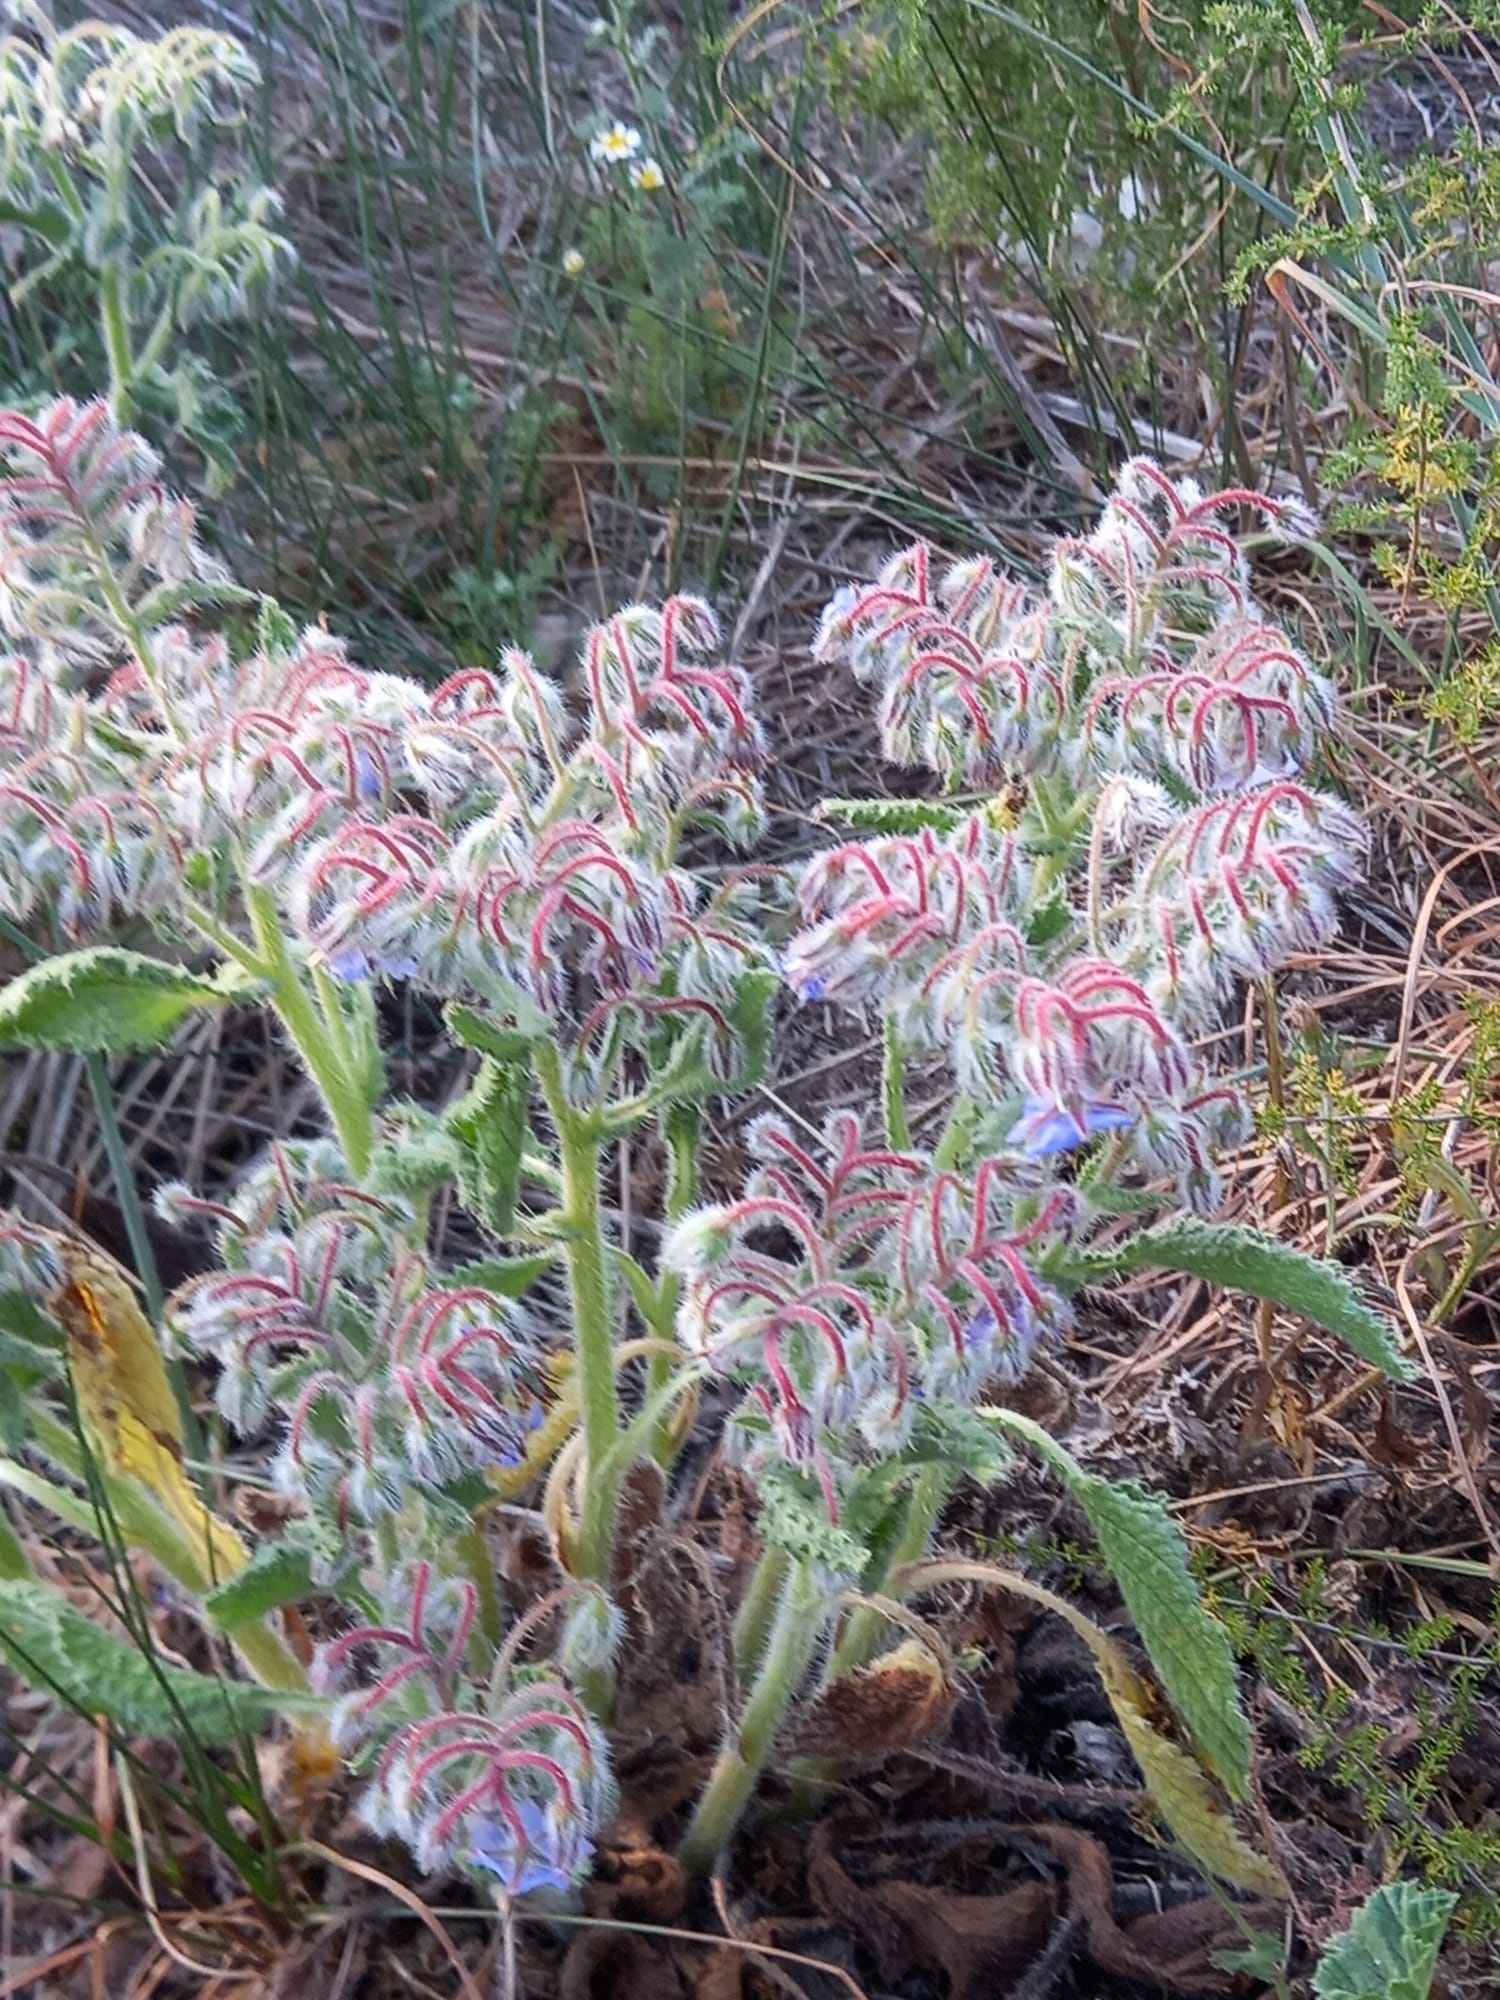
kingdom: Plantae
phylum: Tracheophyta
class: Magnoliopsida
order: Boraginales
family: Boraginaceae
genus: Borago
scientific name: Borago officinalis
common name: Borage
